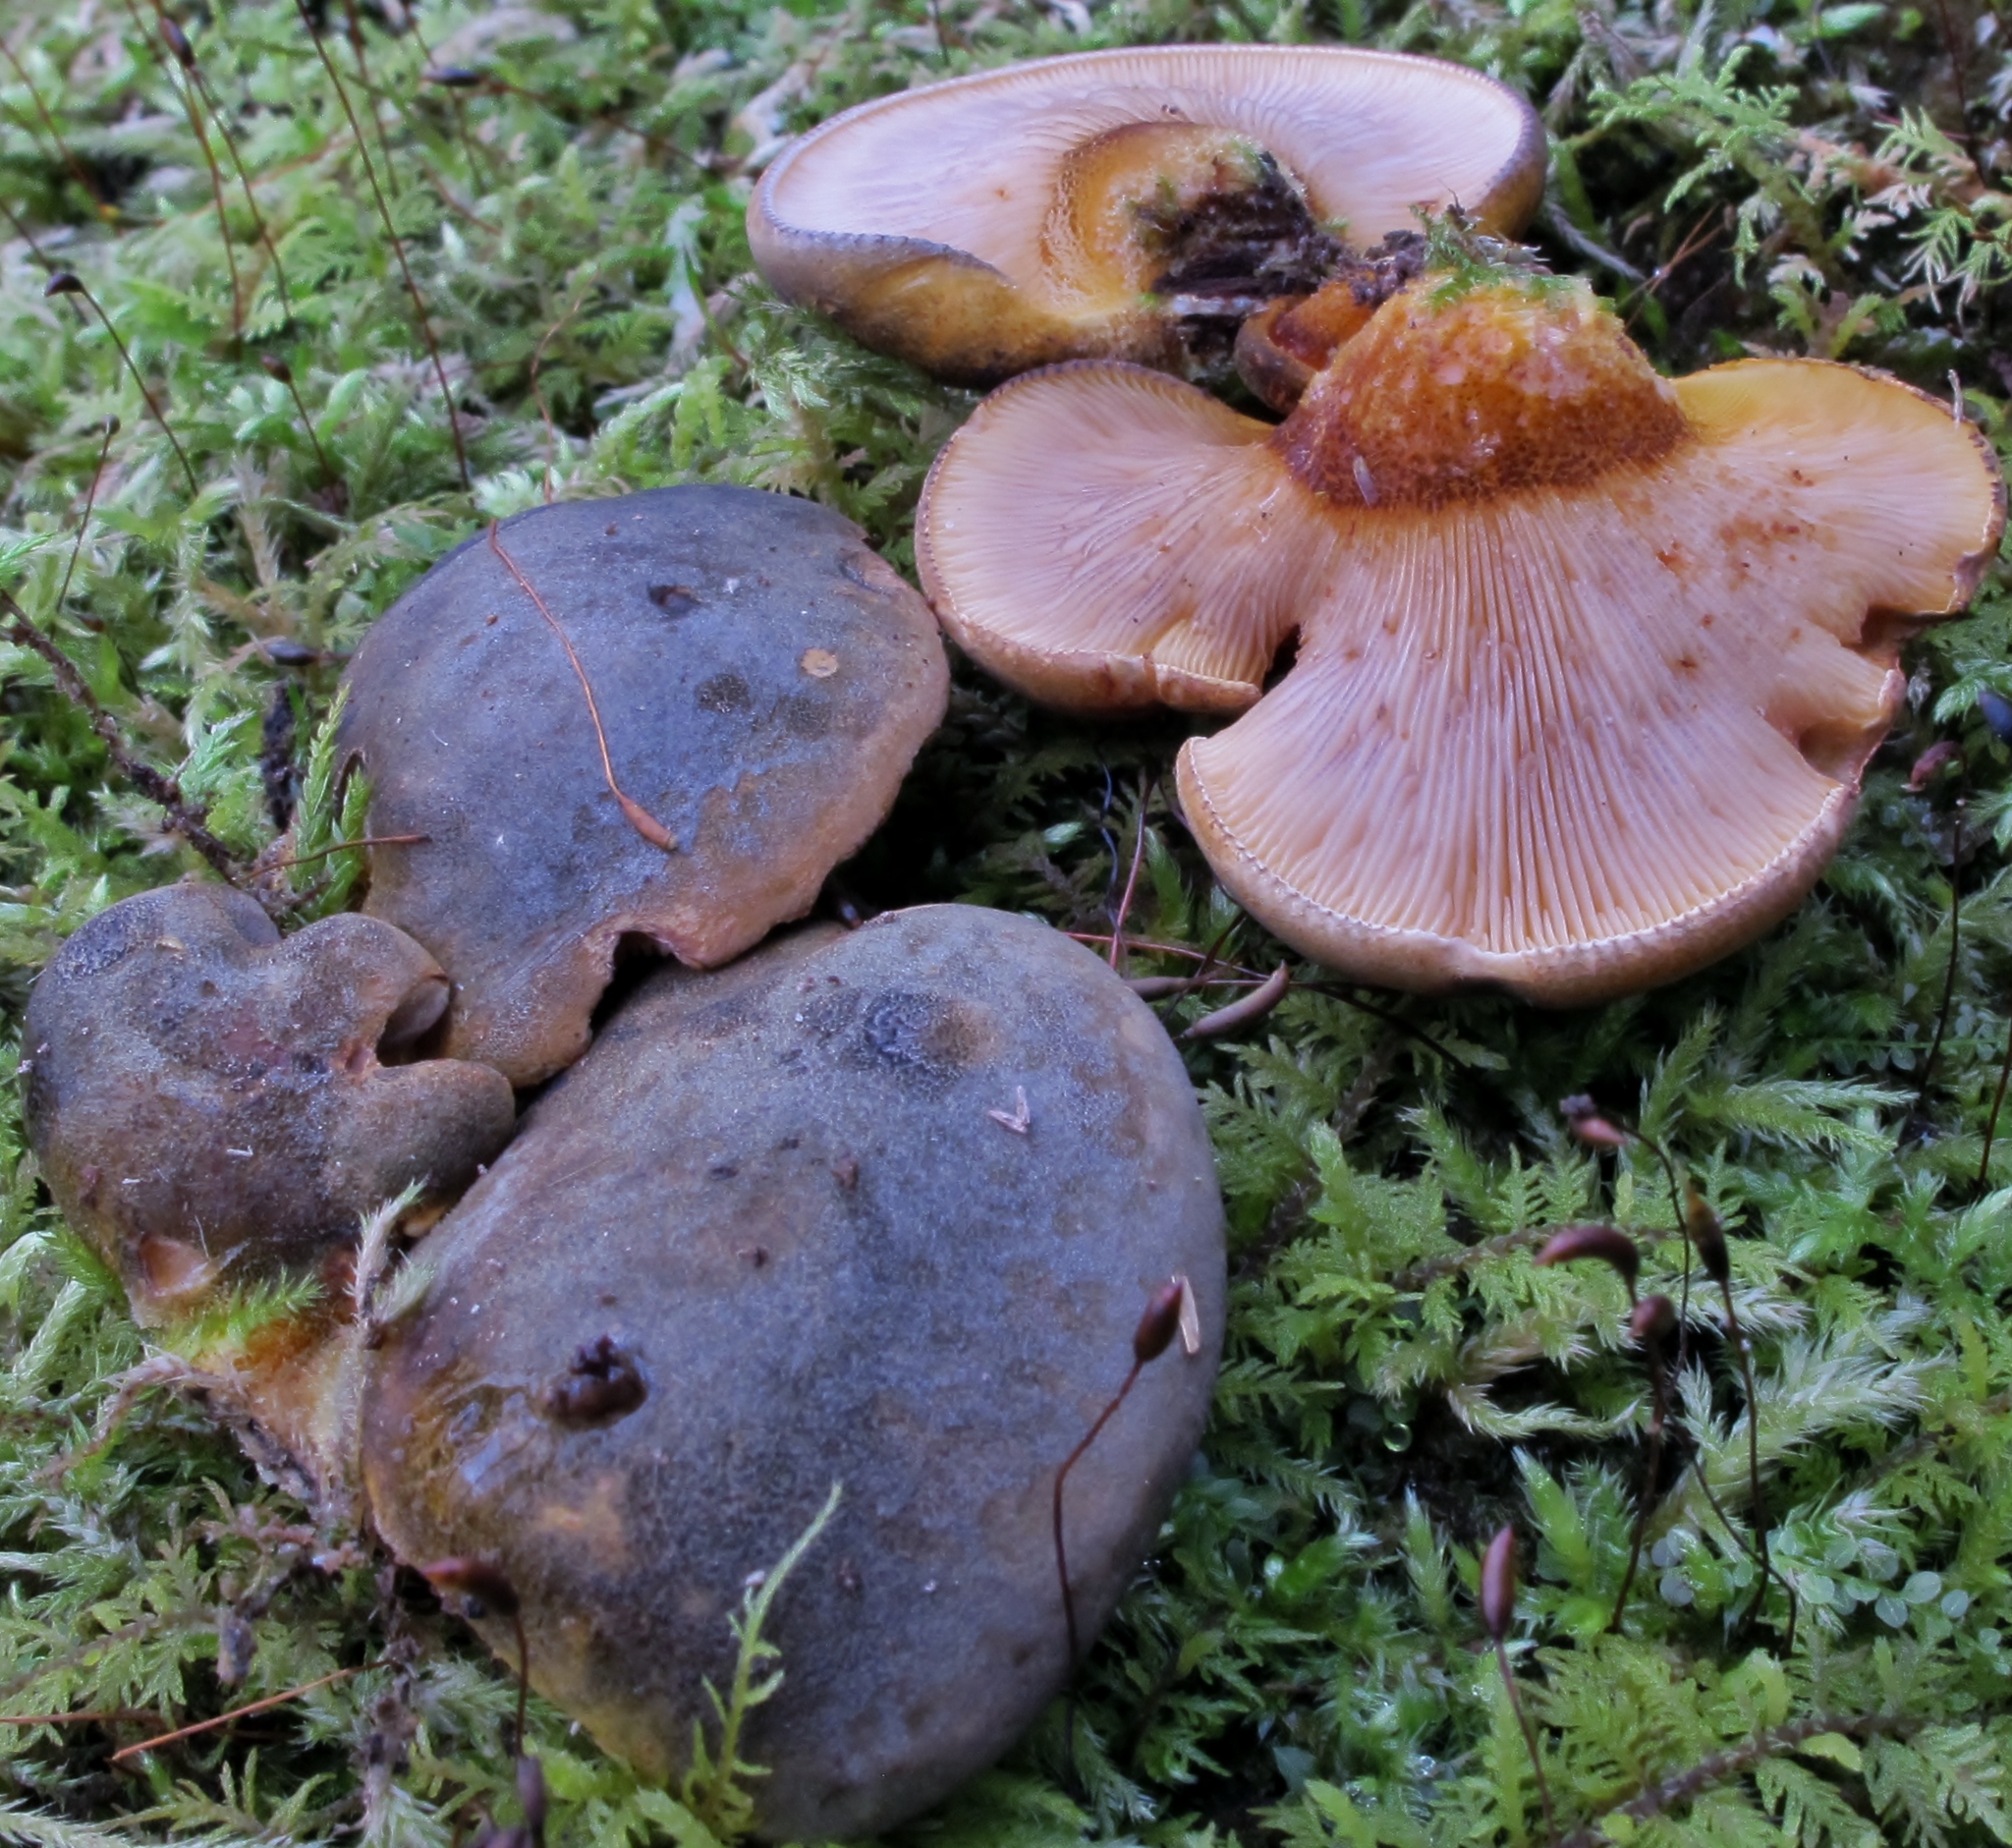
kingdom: Fungi
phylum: Basidiomycota
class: Agaricomycetes
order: Agaricales
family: Sarcomyxaceae
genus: Sarcomyxa
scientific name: Sarcomyxa serotina
